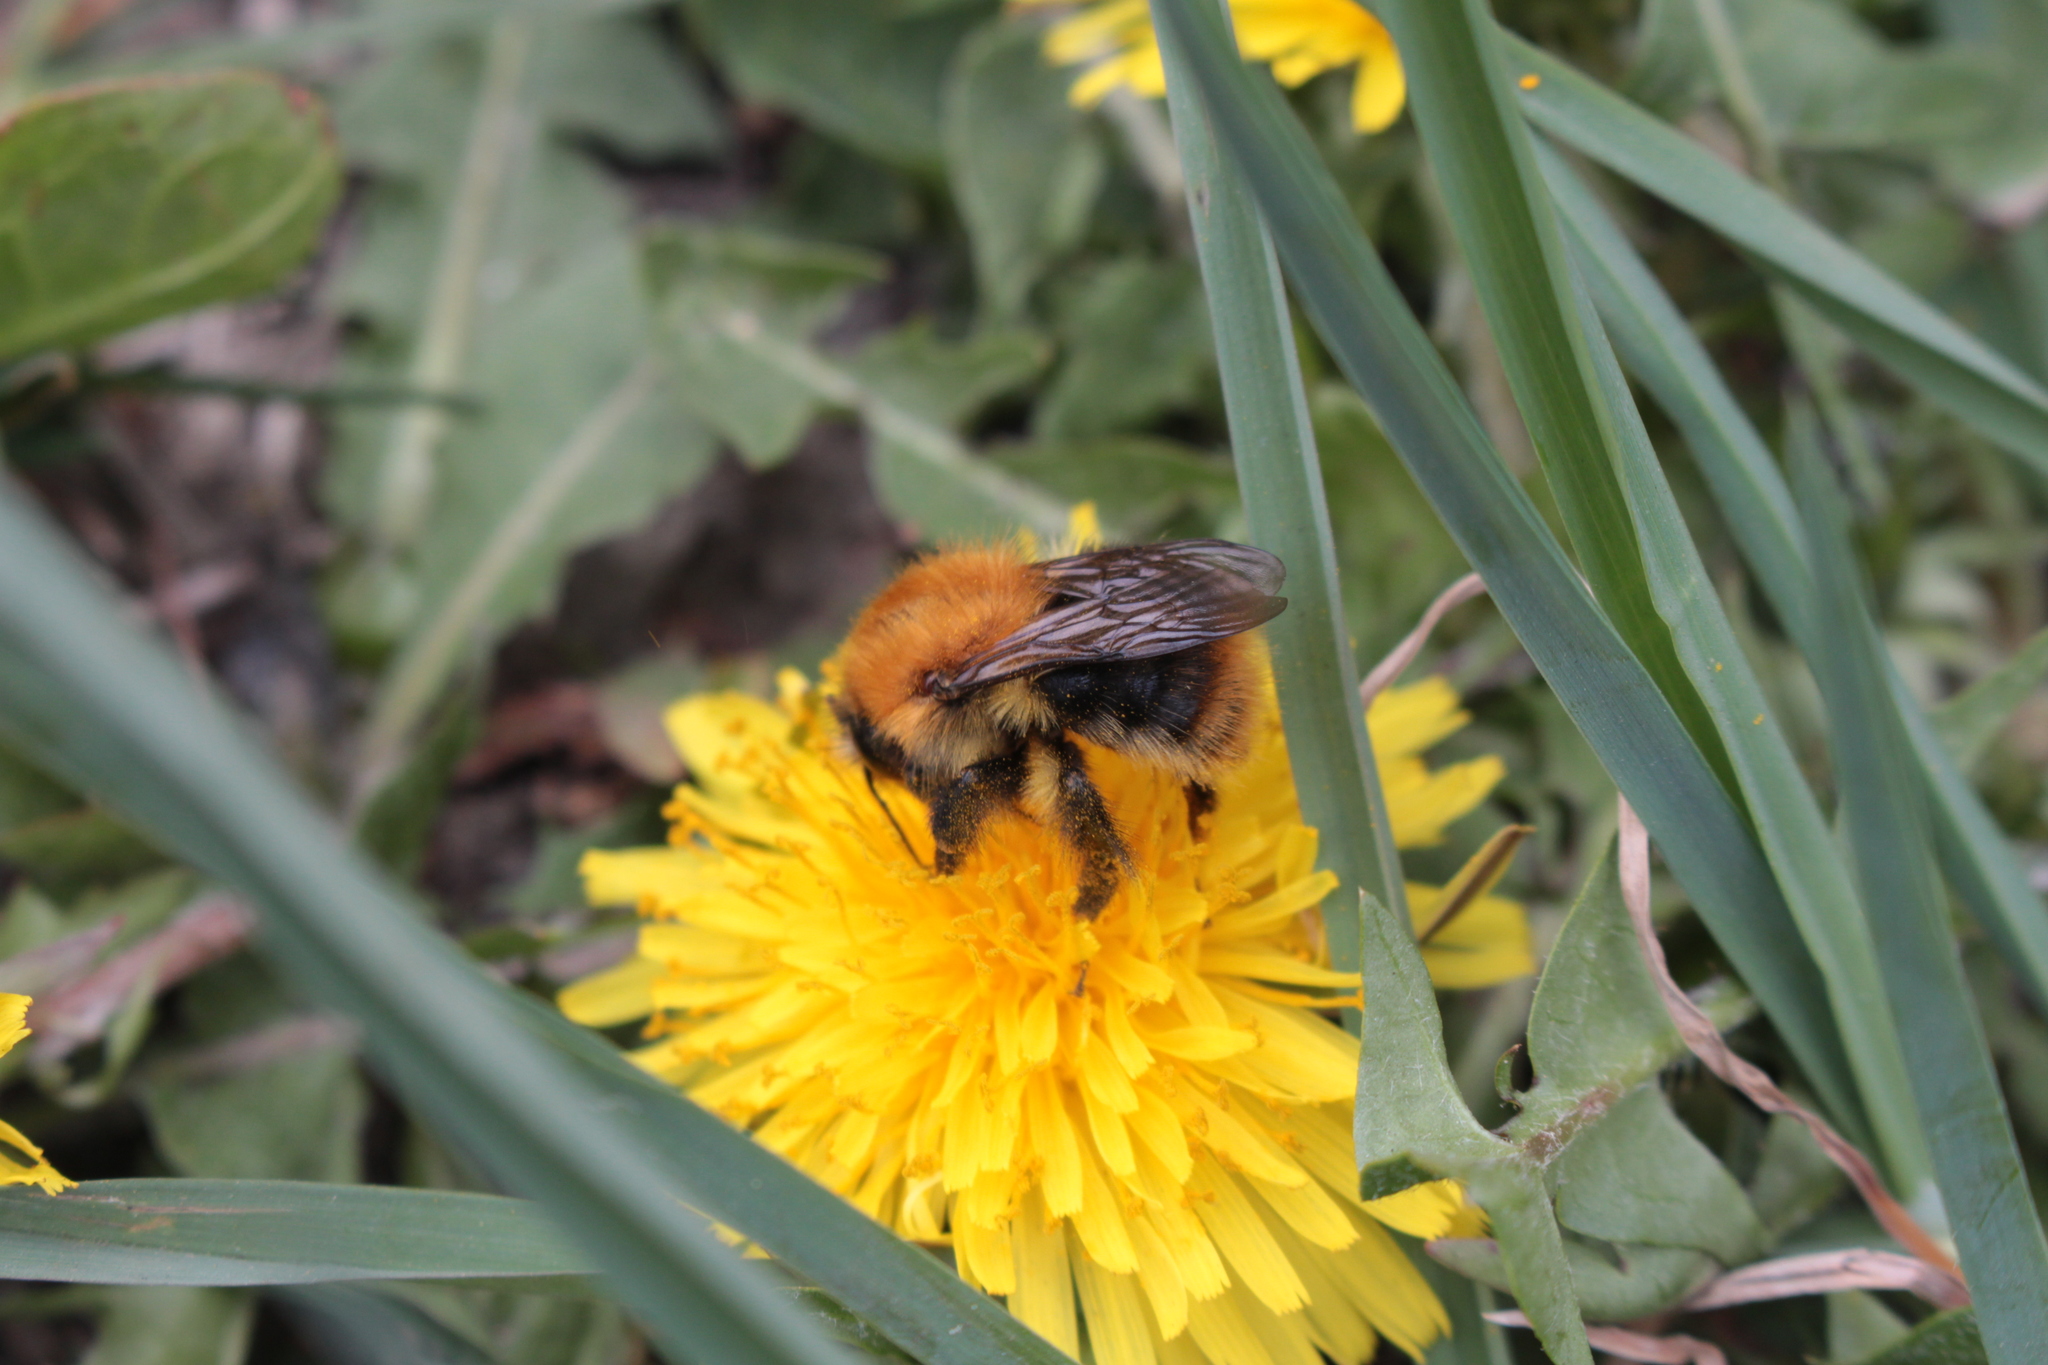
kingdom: Animalia
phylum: Arthropoda
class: Insecta
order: Hymenoptera
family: Apidae
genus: Bombus
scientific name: Bombus pascuorum
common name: Common carder bee
